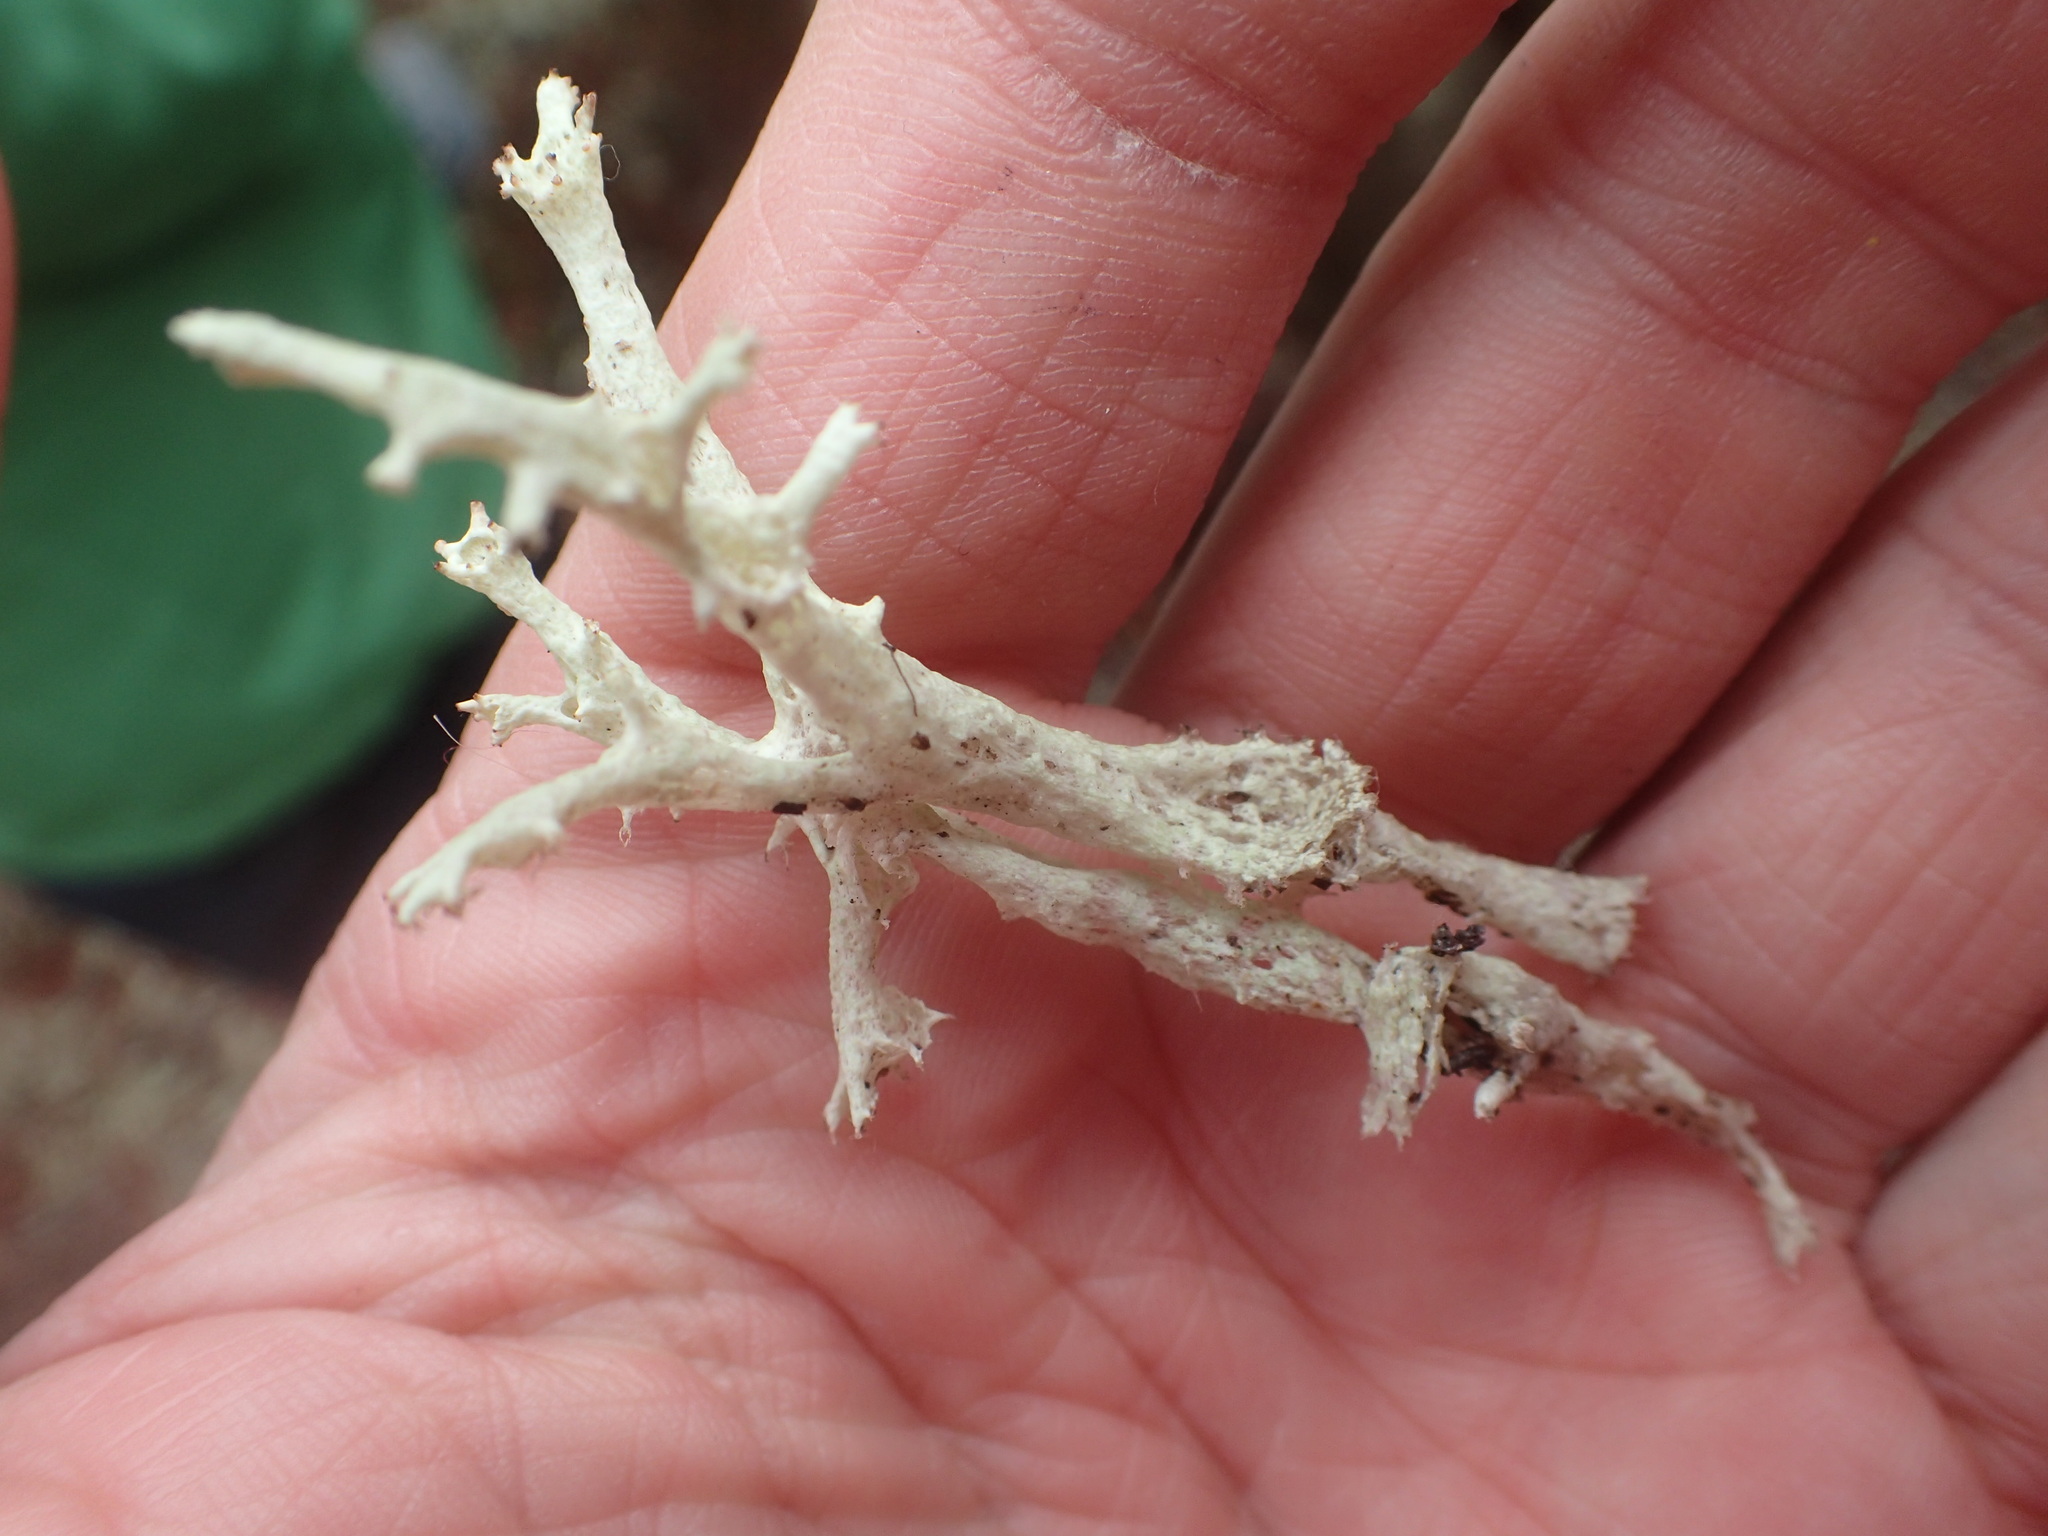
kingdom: Fungi
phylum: Ascomycota
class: Lecanoromycetes
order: Lecanorales
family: Cladoniaceae
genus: Cladonia
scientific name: Cladonia boryi
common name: Fishnet cladonia
